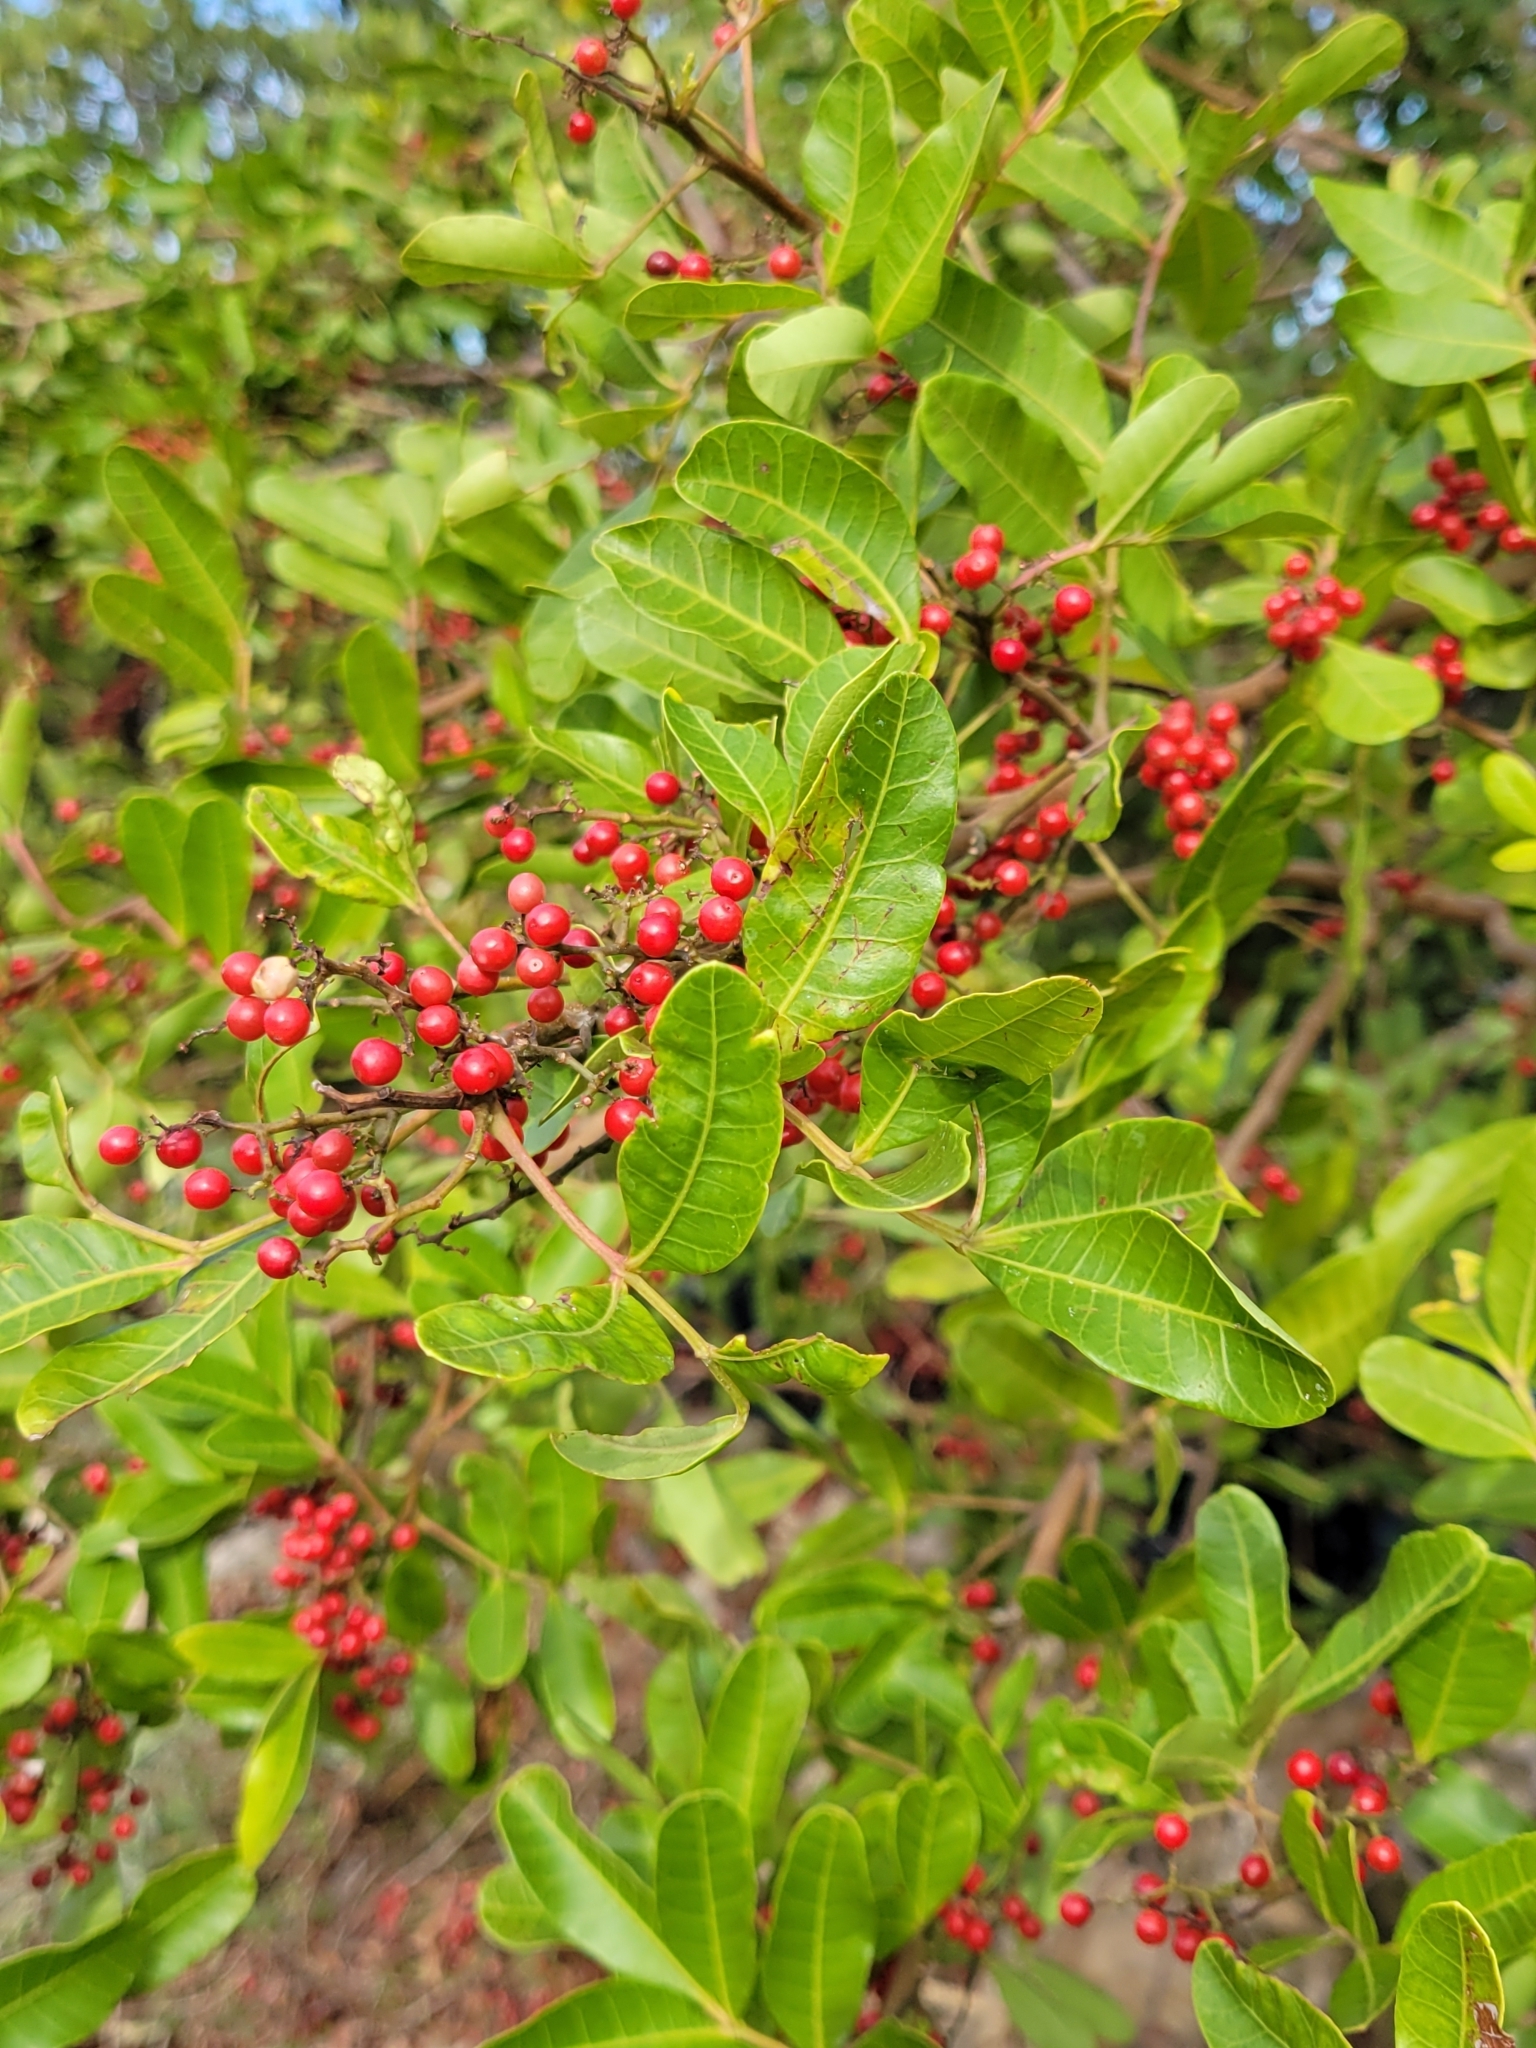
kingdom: Plantae
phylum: Tracheophyta
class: Magnoliopsida
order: Sapindales
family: Anacardiaceae
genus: Schinus
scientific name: Schinus terebinthifolia
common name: Brazilian peppertree
